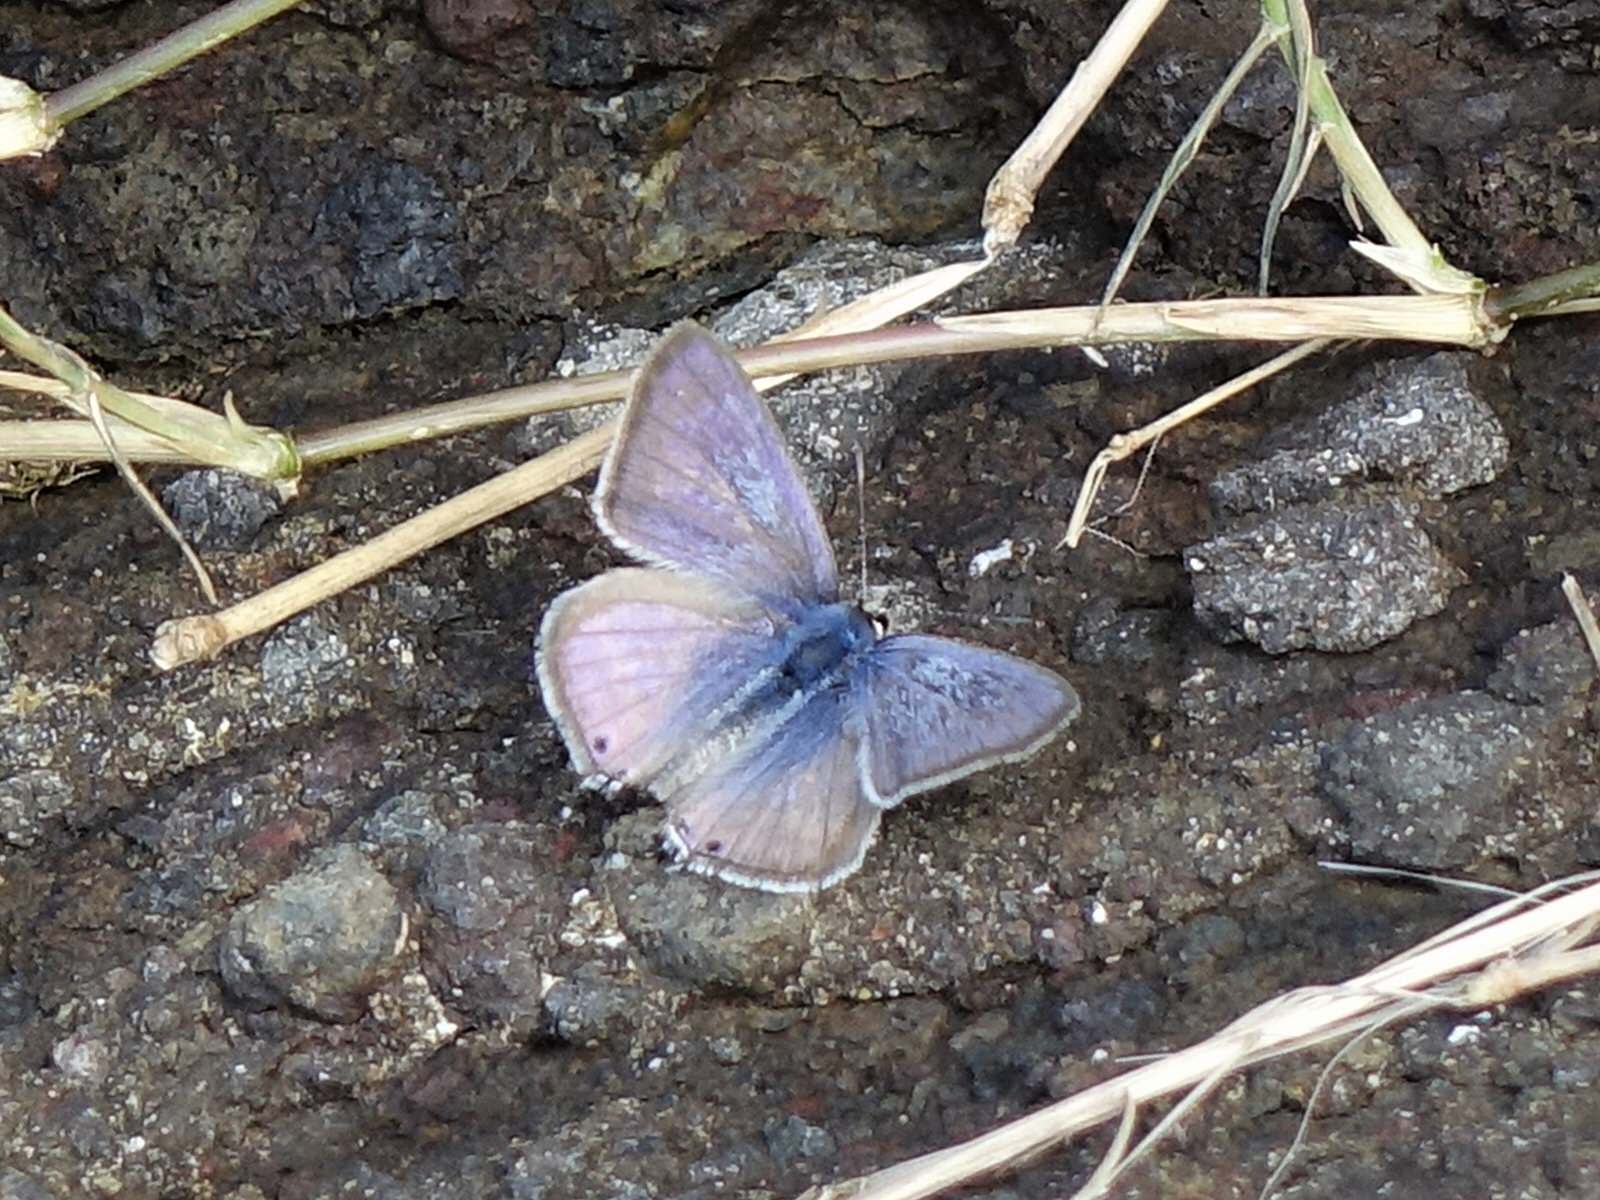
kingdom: Animalia
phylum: Arthropoda
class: Insecta
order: Lepidoptera
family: Lycaenidae
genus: Lampides
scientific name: Lampides boeticus
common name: Long-tailed blue
